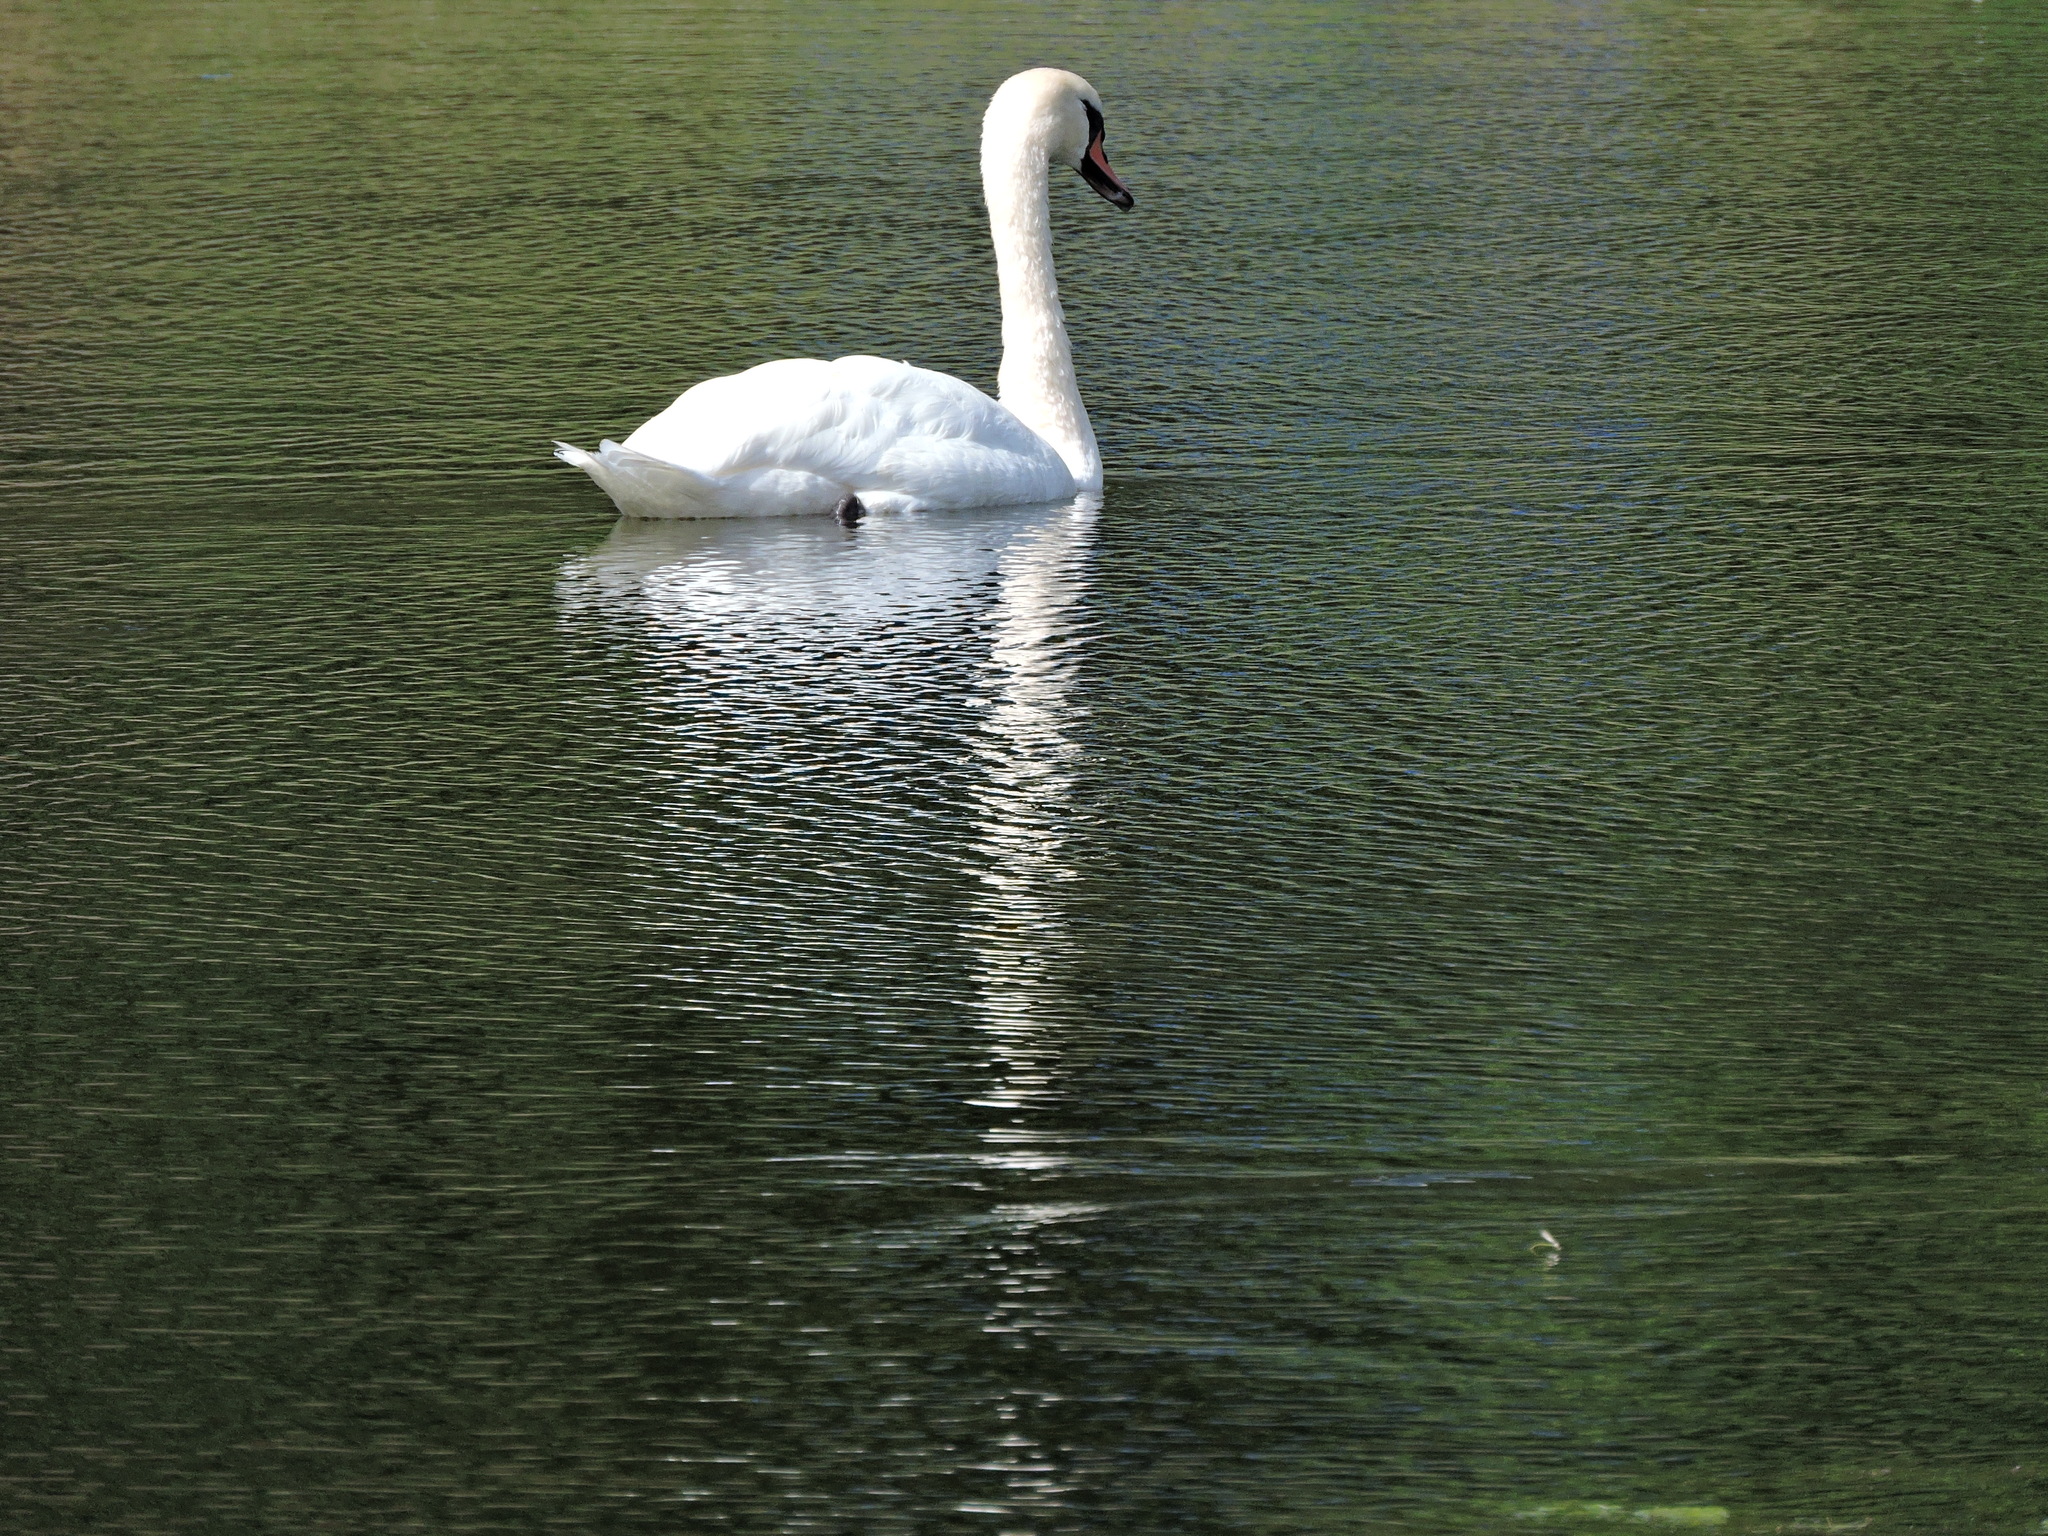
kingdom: Animalia
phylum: Chordata
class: Aves
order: Anseriformes
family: Anatidae
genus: Cygnus
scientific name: Cygnus olor
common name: Mute swan
